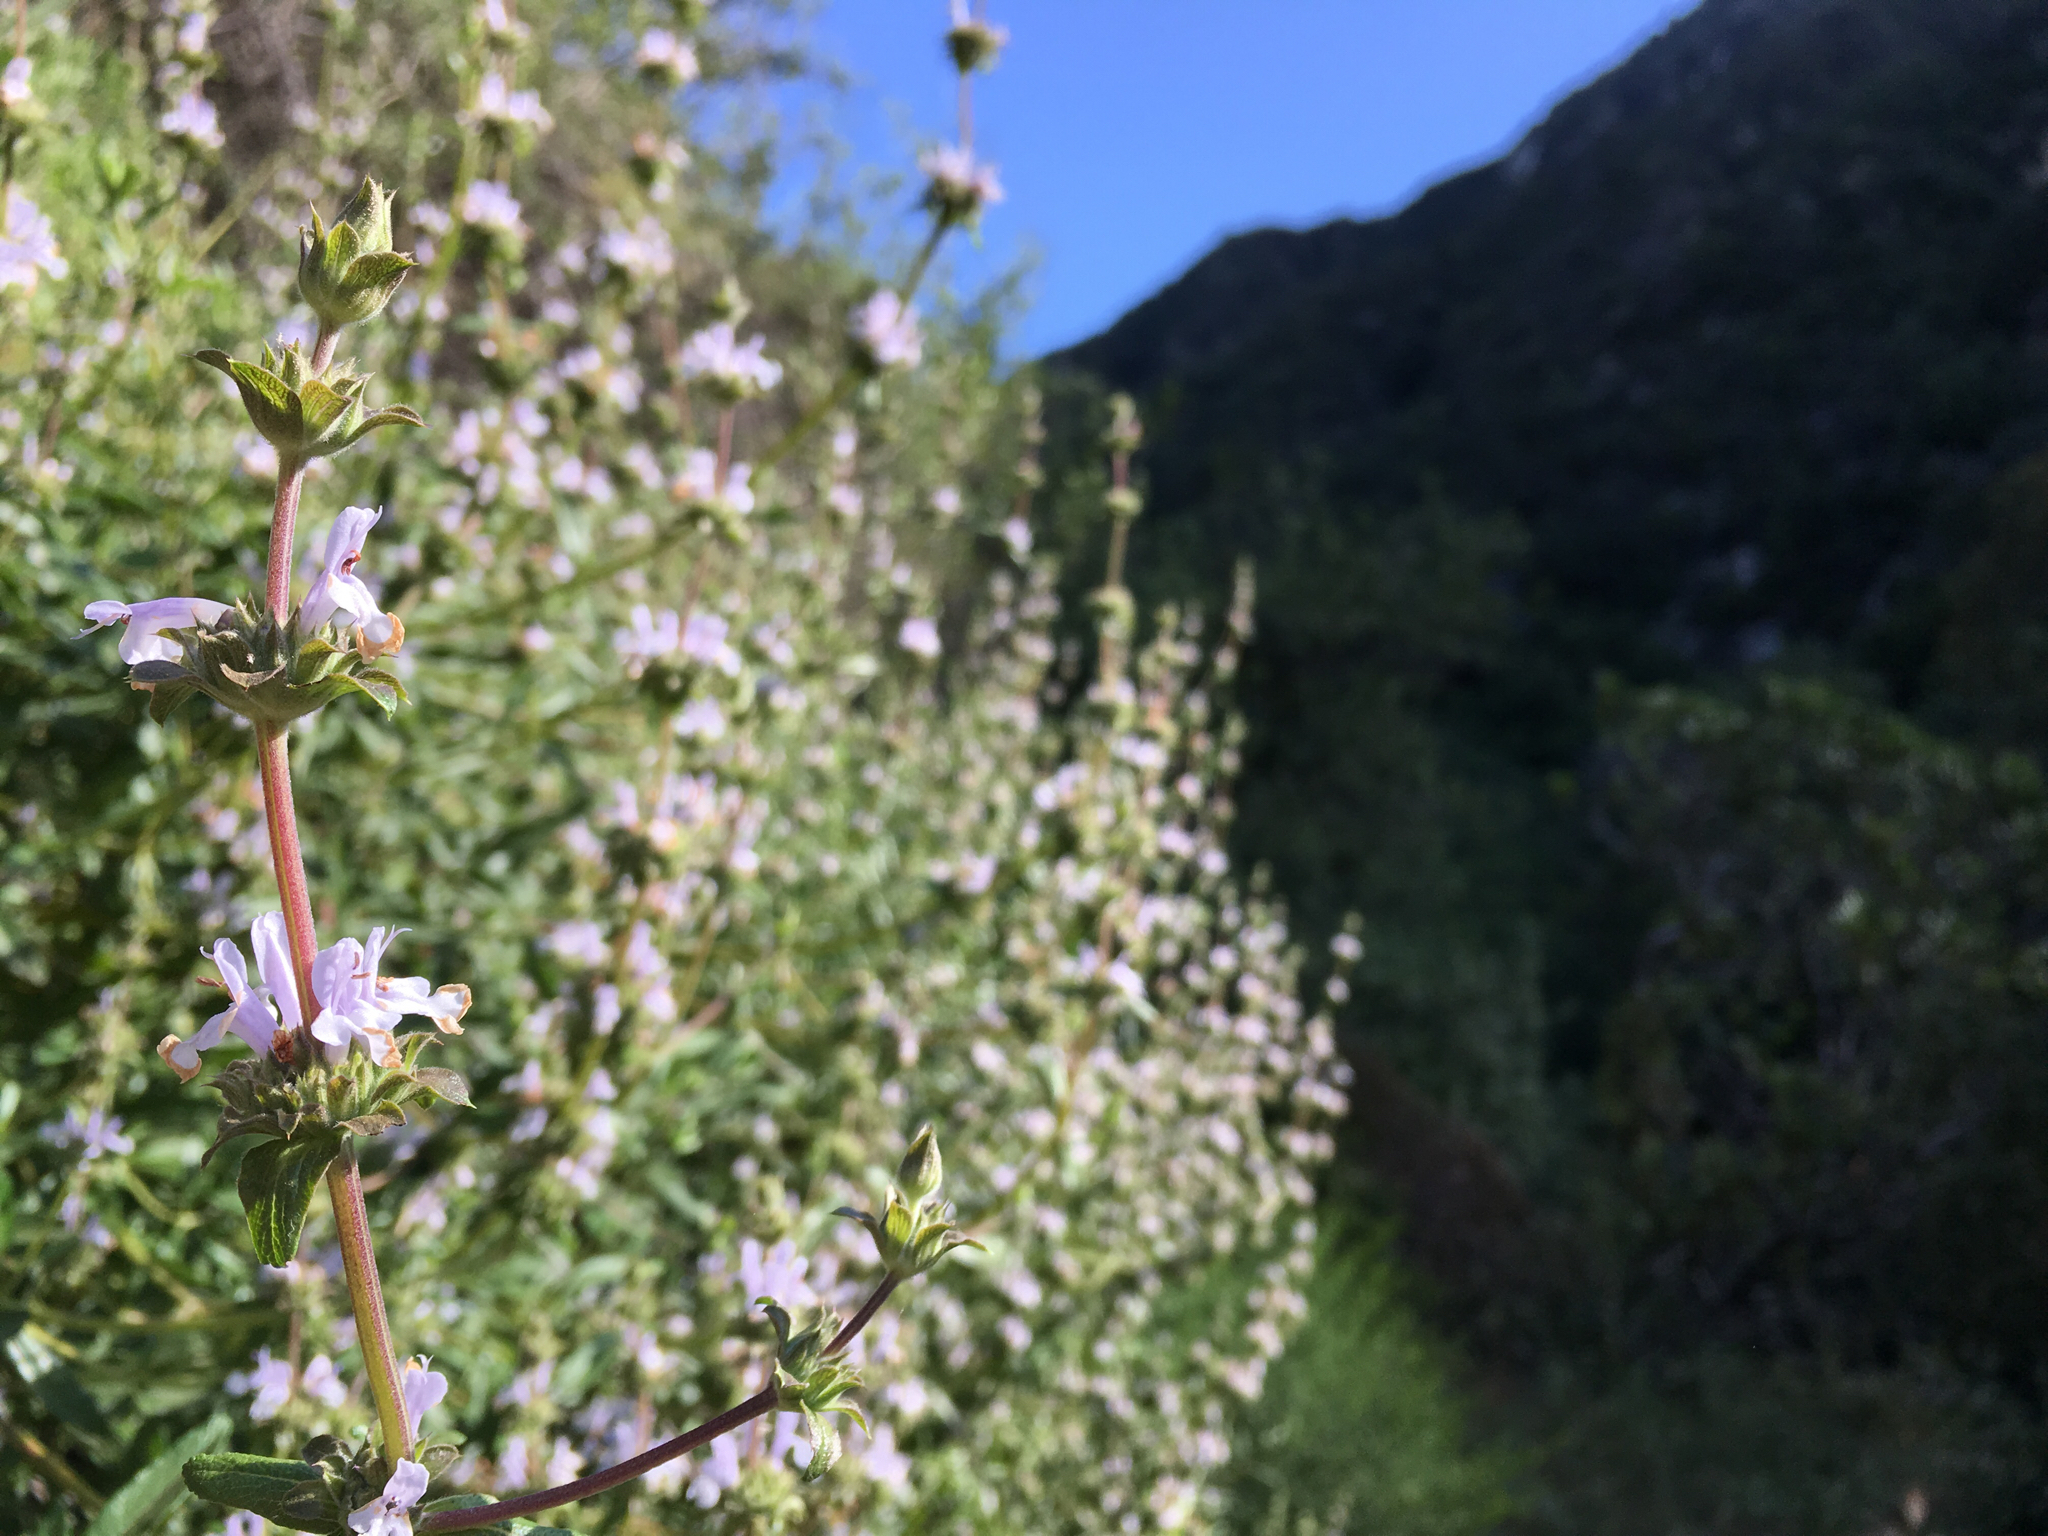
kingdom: Plantae
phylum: Tracheophyta
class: Magnoliopsida
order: Lamiales
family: Lamiaceae
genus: Salvia
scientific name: Salvia mellifera
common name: Black sage
